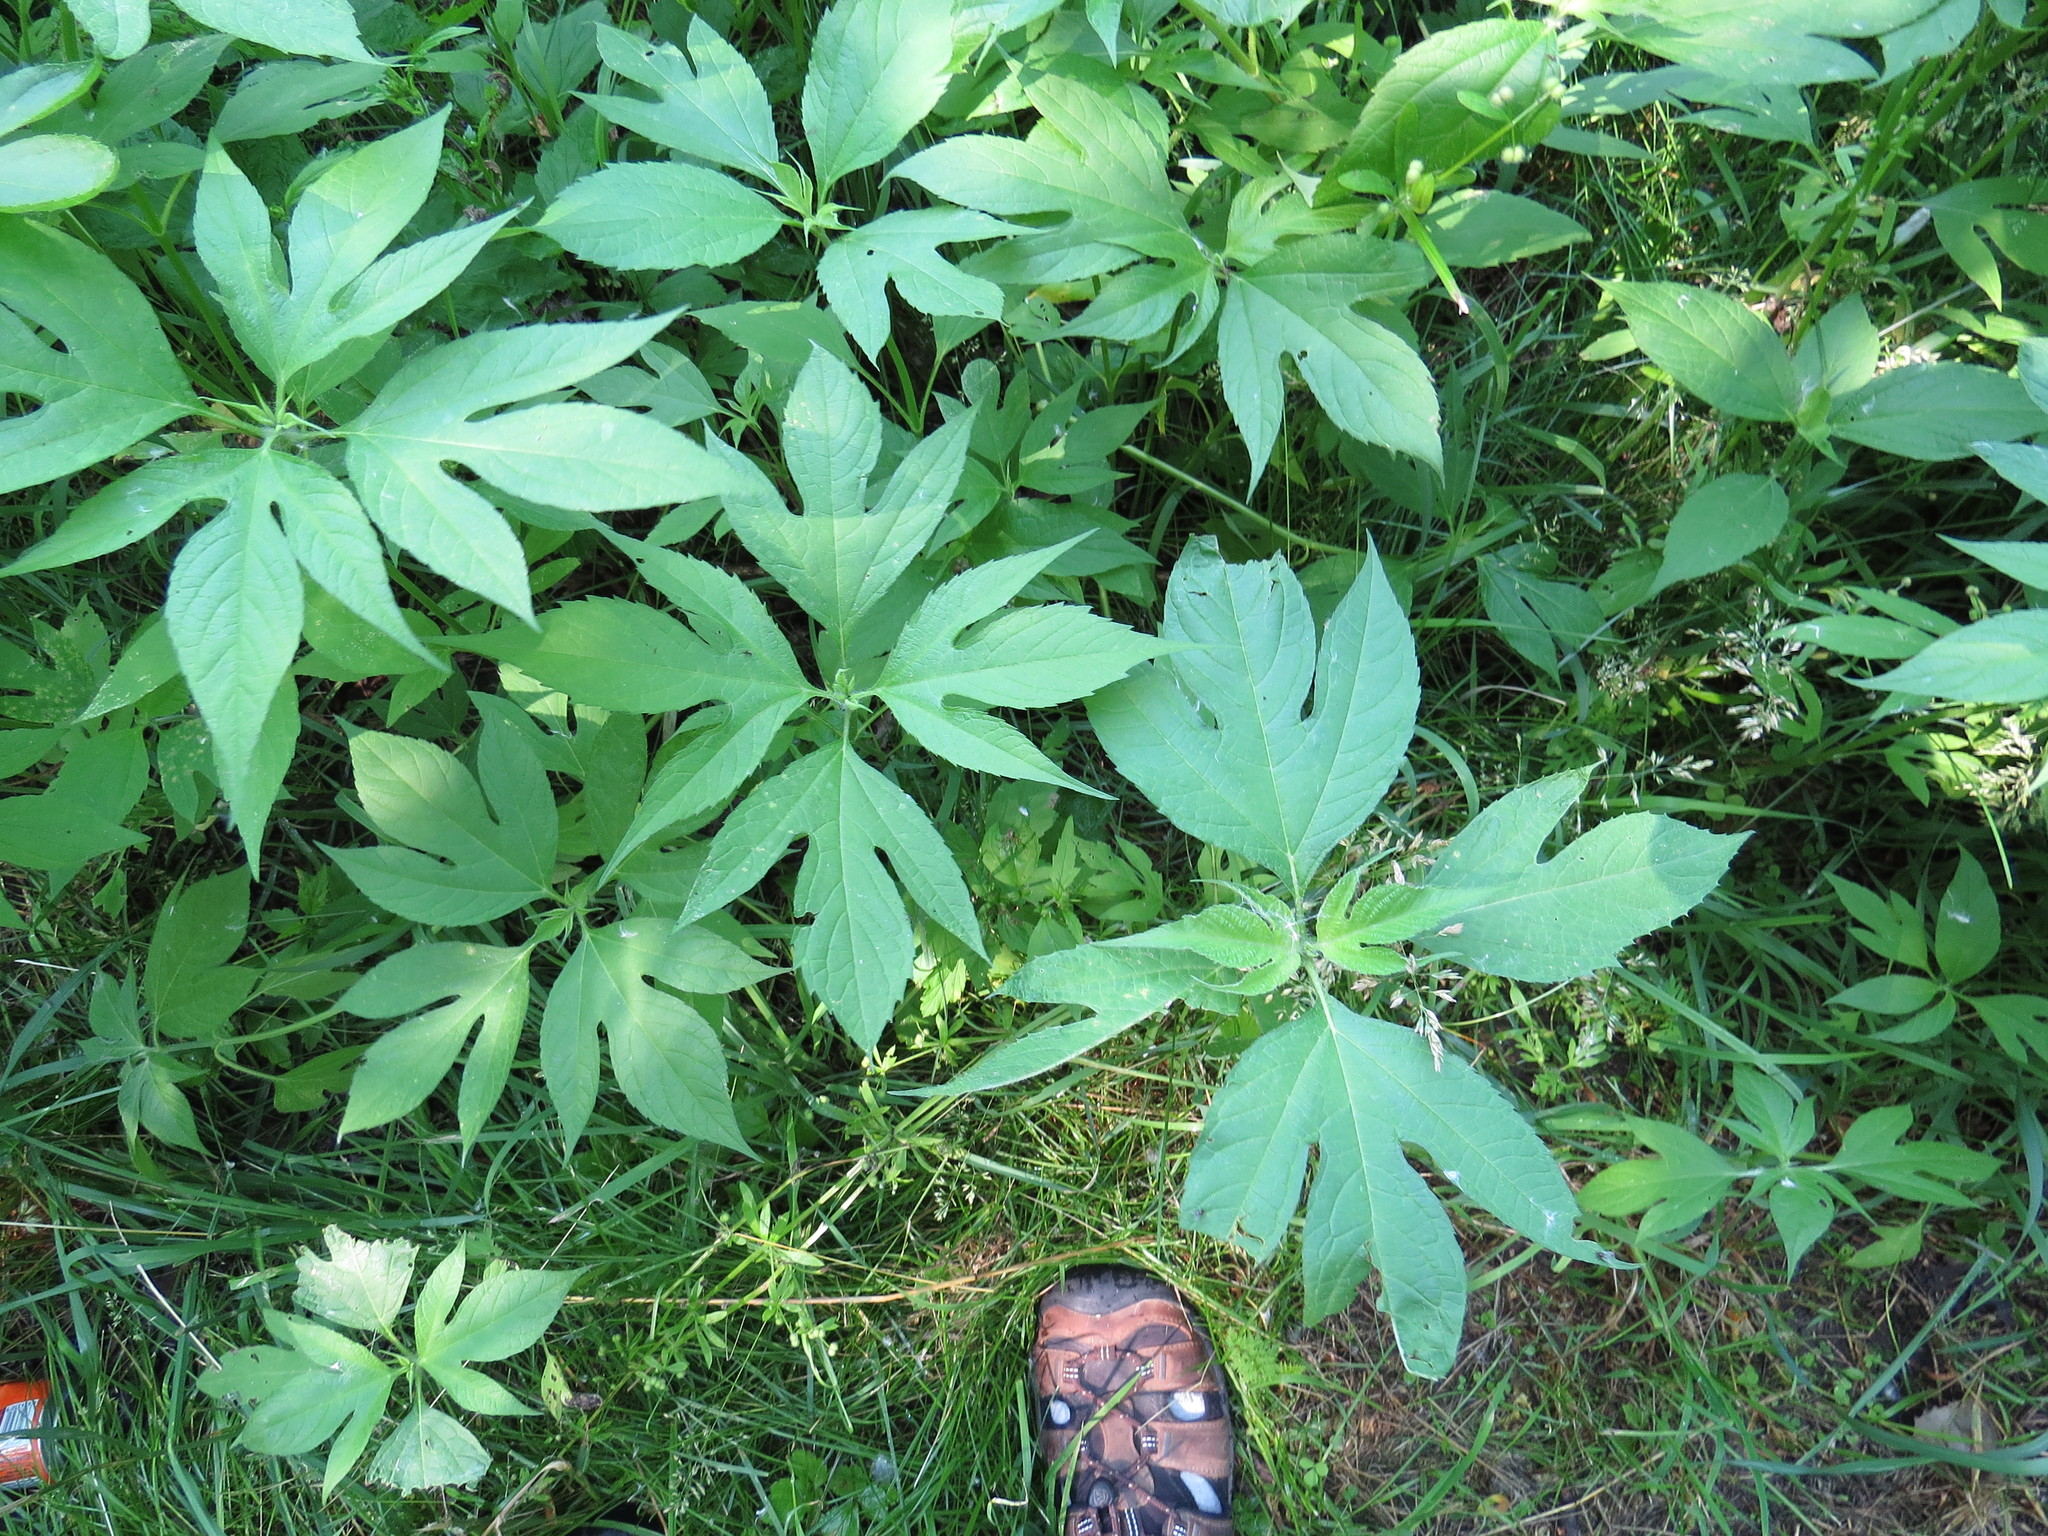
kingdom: Plantae
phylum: Tracheophyta
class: Magnoliopsida
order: Asterales
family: Asteraceae
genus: Ambrosia
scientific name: Ambrosia trifida
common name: Giant ragweed
